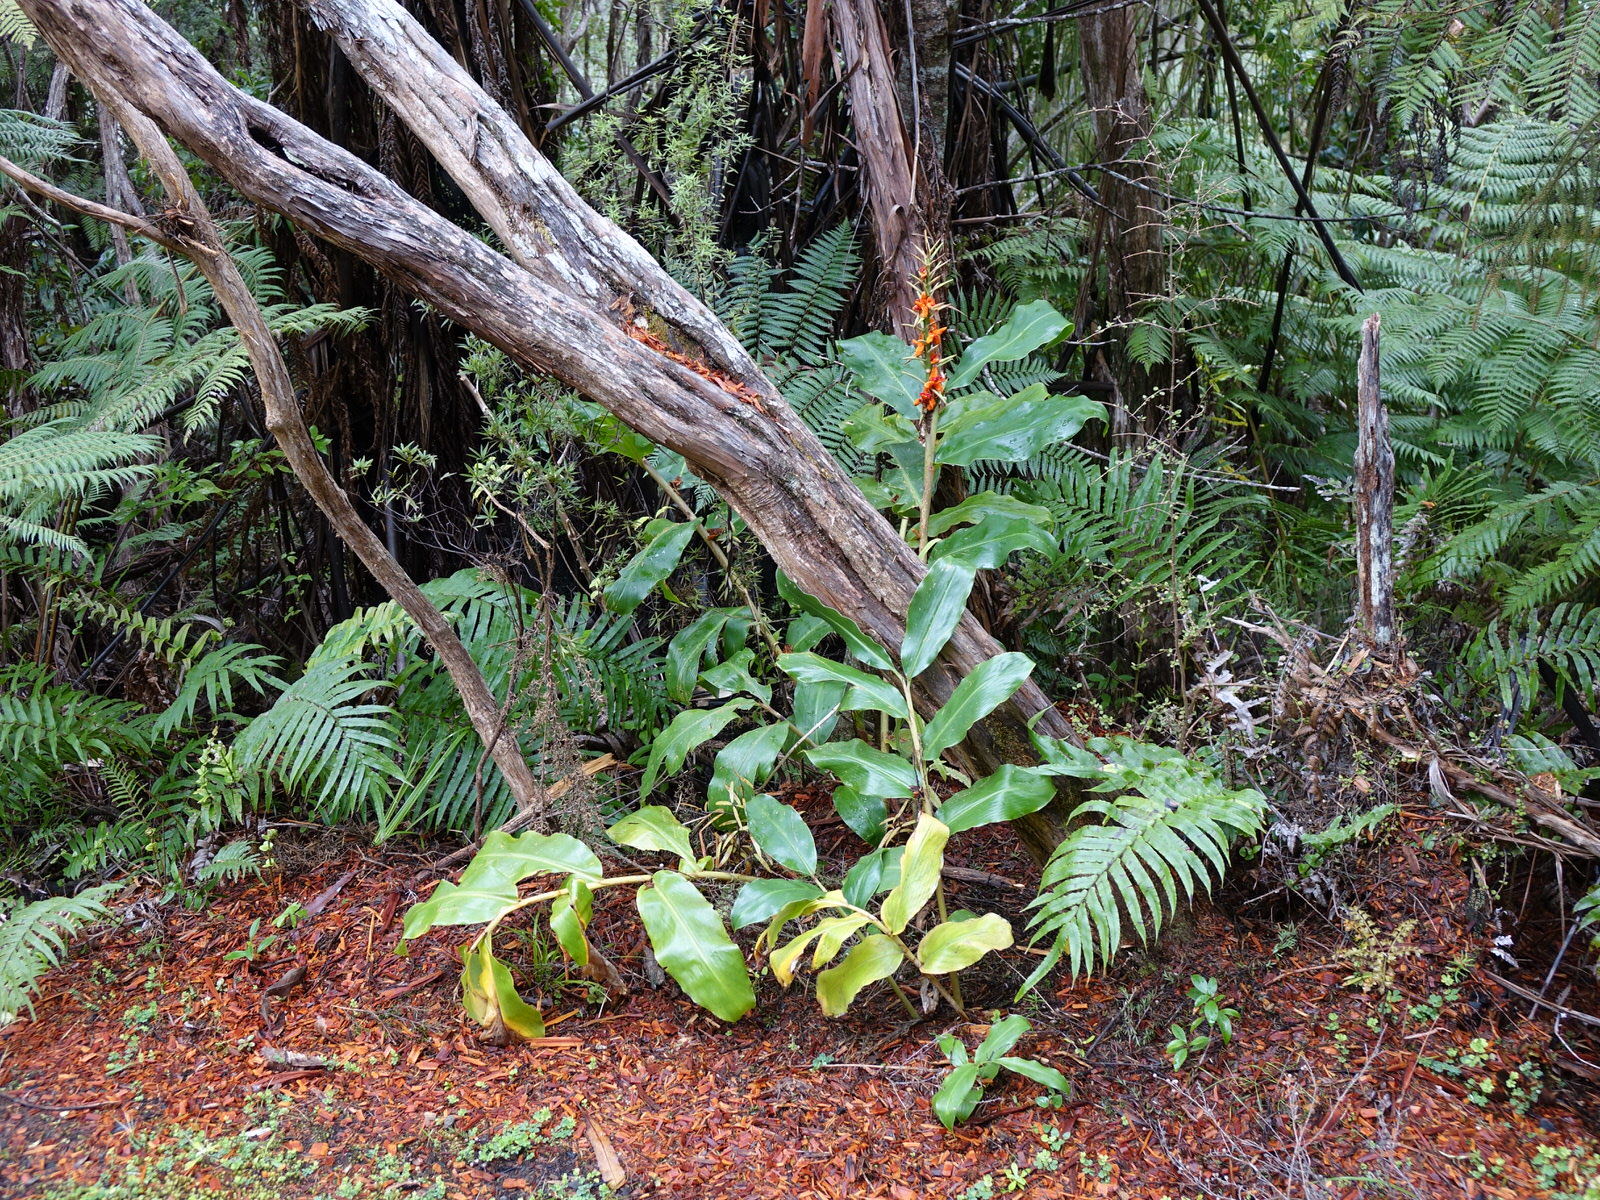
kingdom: Plantae
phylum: Tracheophyta
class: Liliopsida
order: Zingiberales
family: Zingiberaceae
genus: Hedychium
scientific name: Hedychium gardnerianum
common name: Himalayan ginger
